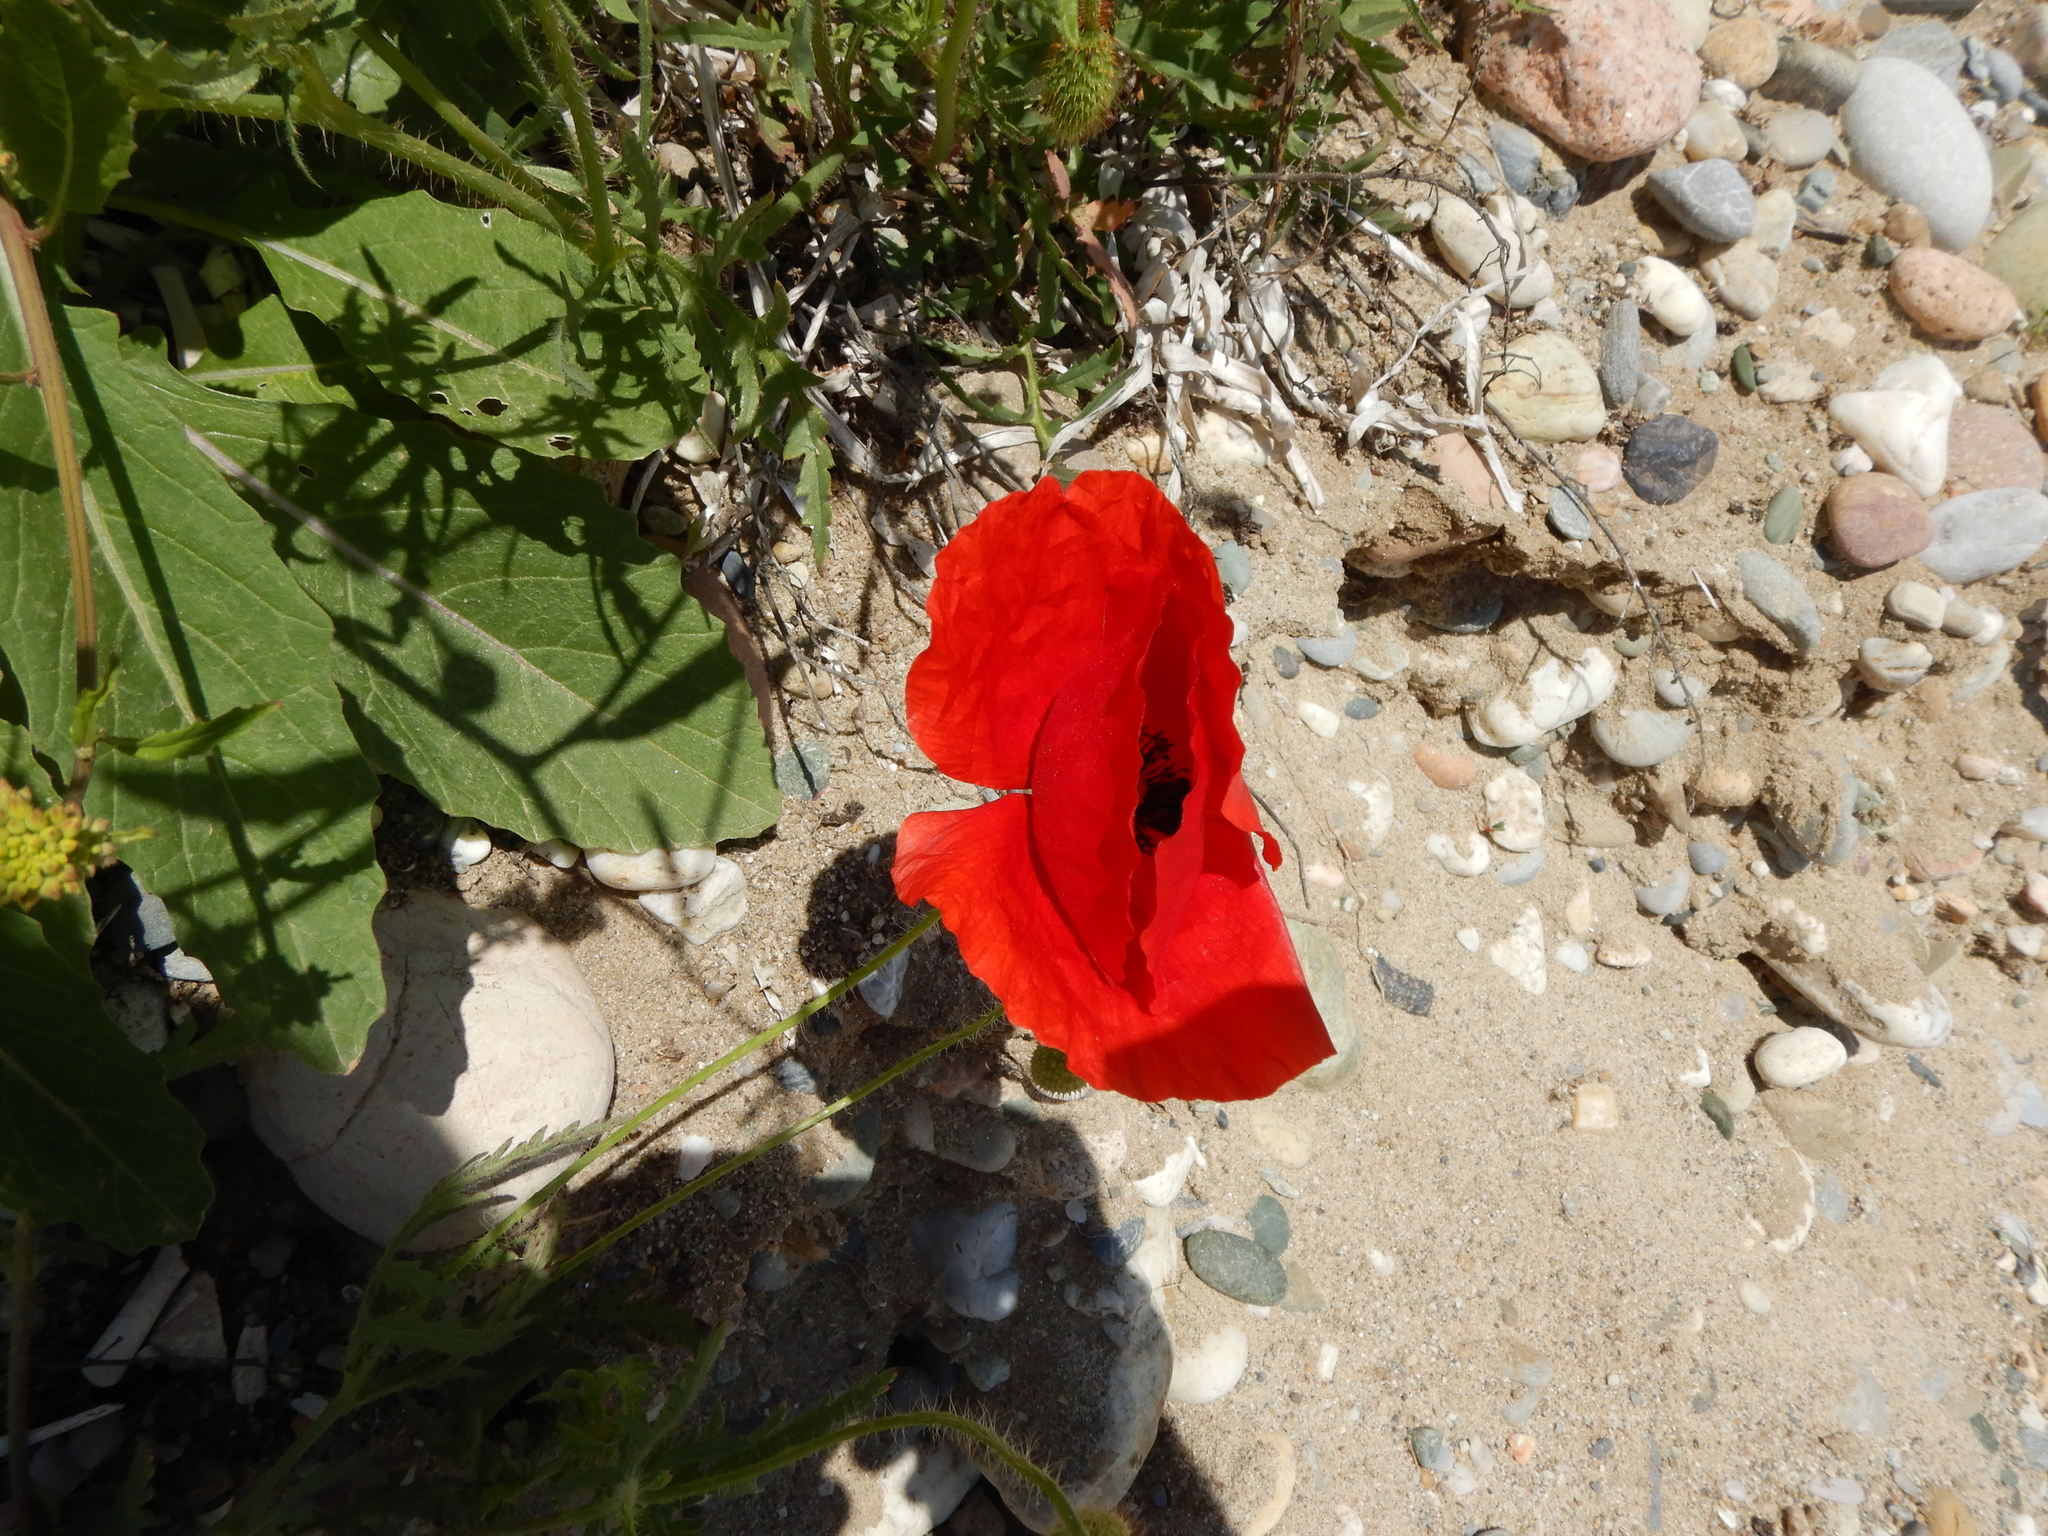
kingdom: Plantae
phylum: Tracheophyta
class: Magnoliopsida
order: Ranunculales
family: Papaveraceae
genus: Papaver
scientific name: Papaver rhoeas
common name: Corn poppy
